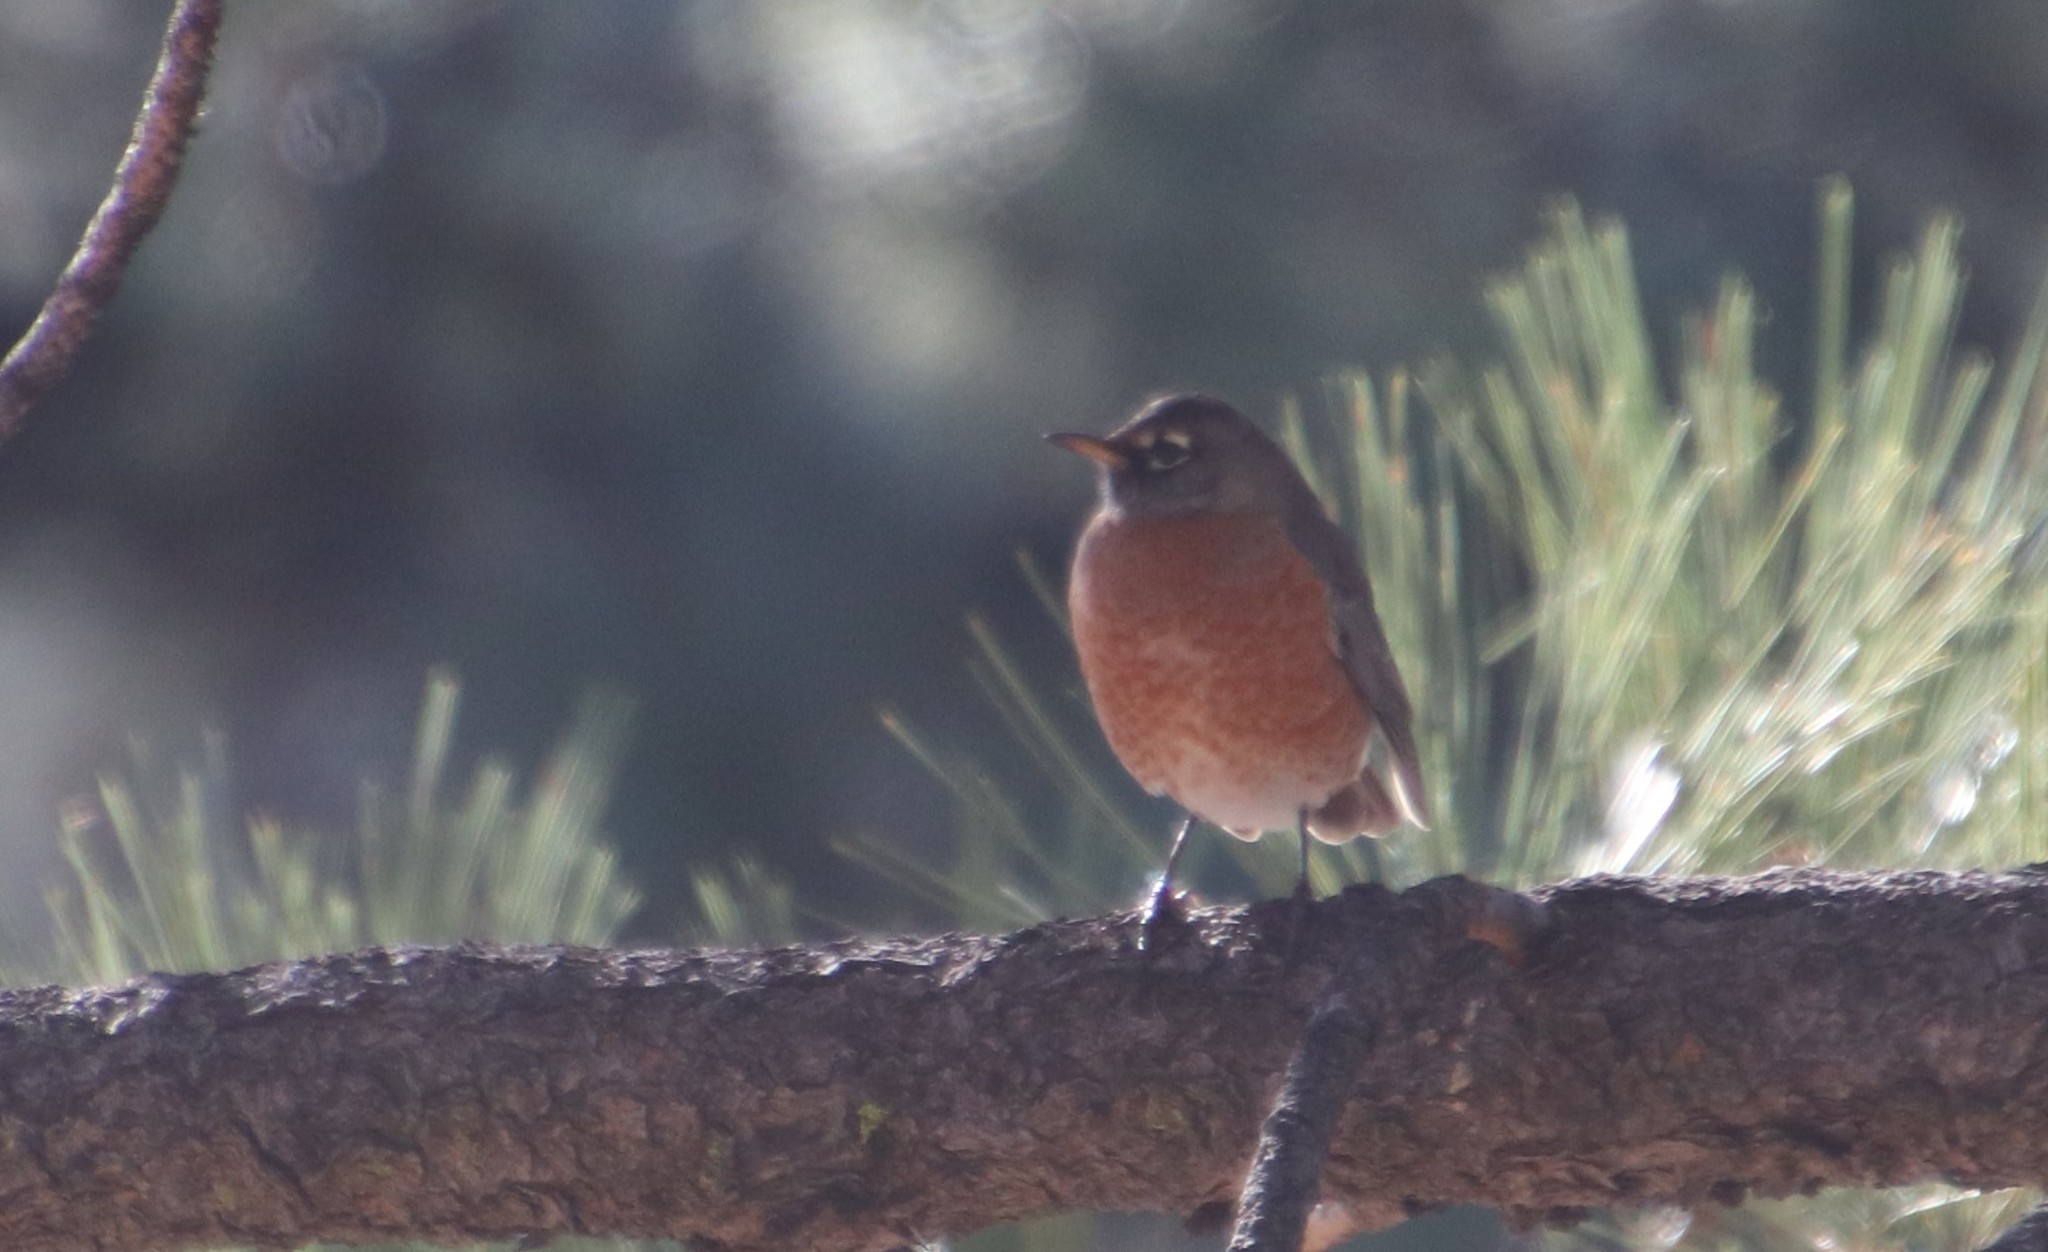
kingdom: Animalia
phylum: Chordata
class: Aves
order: Passeriformes
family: Turdidae
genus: Turdus
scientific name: Turdus migratorius
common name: American robin
